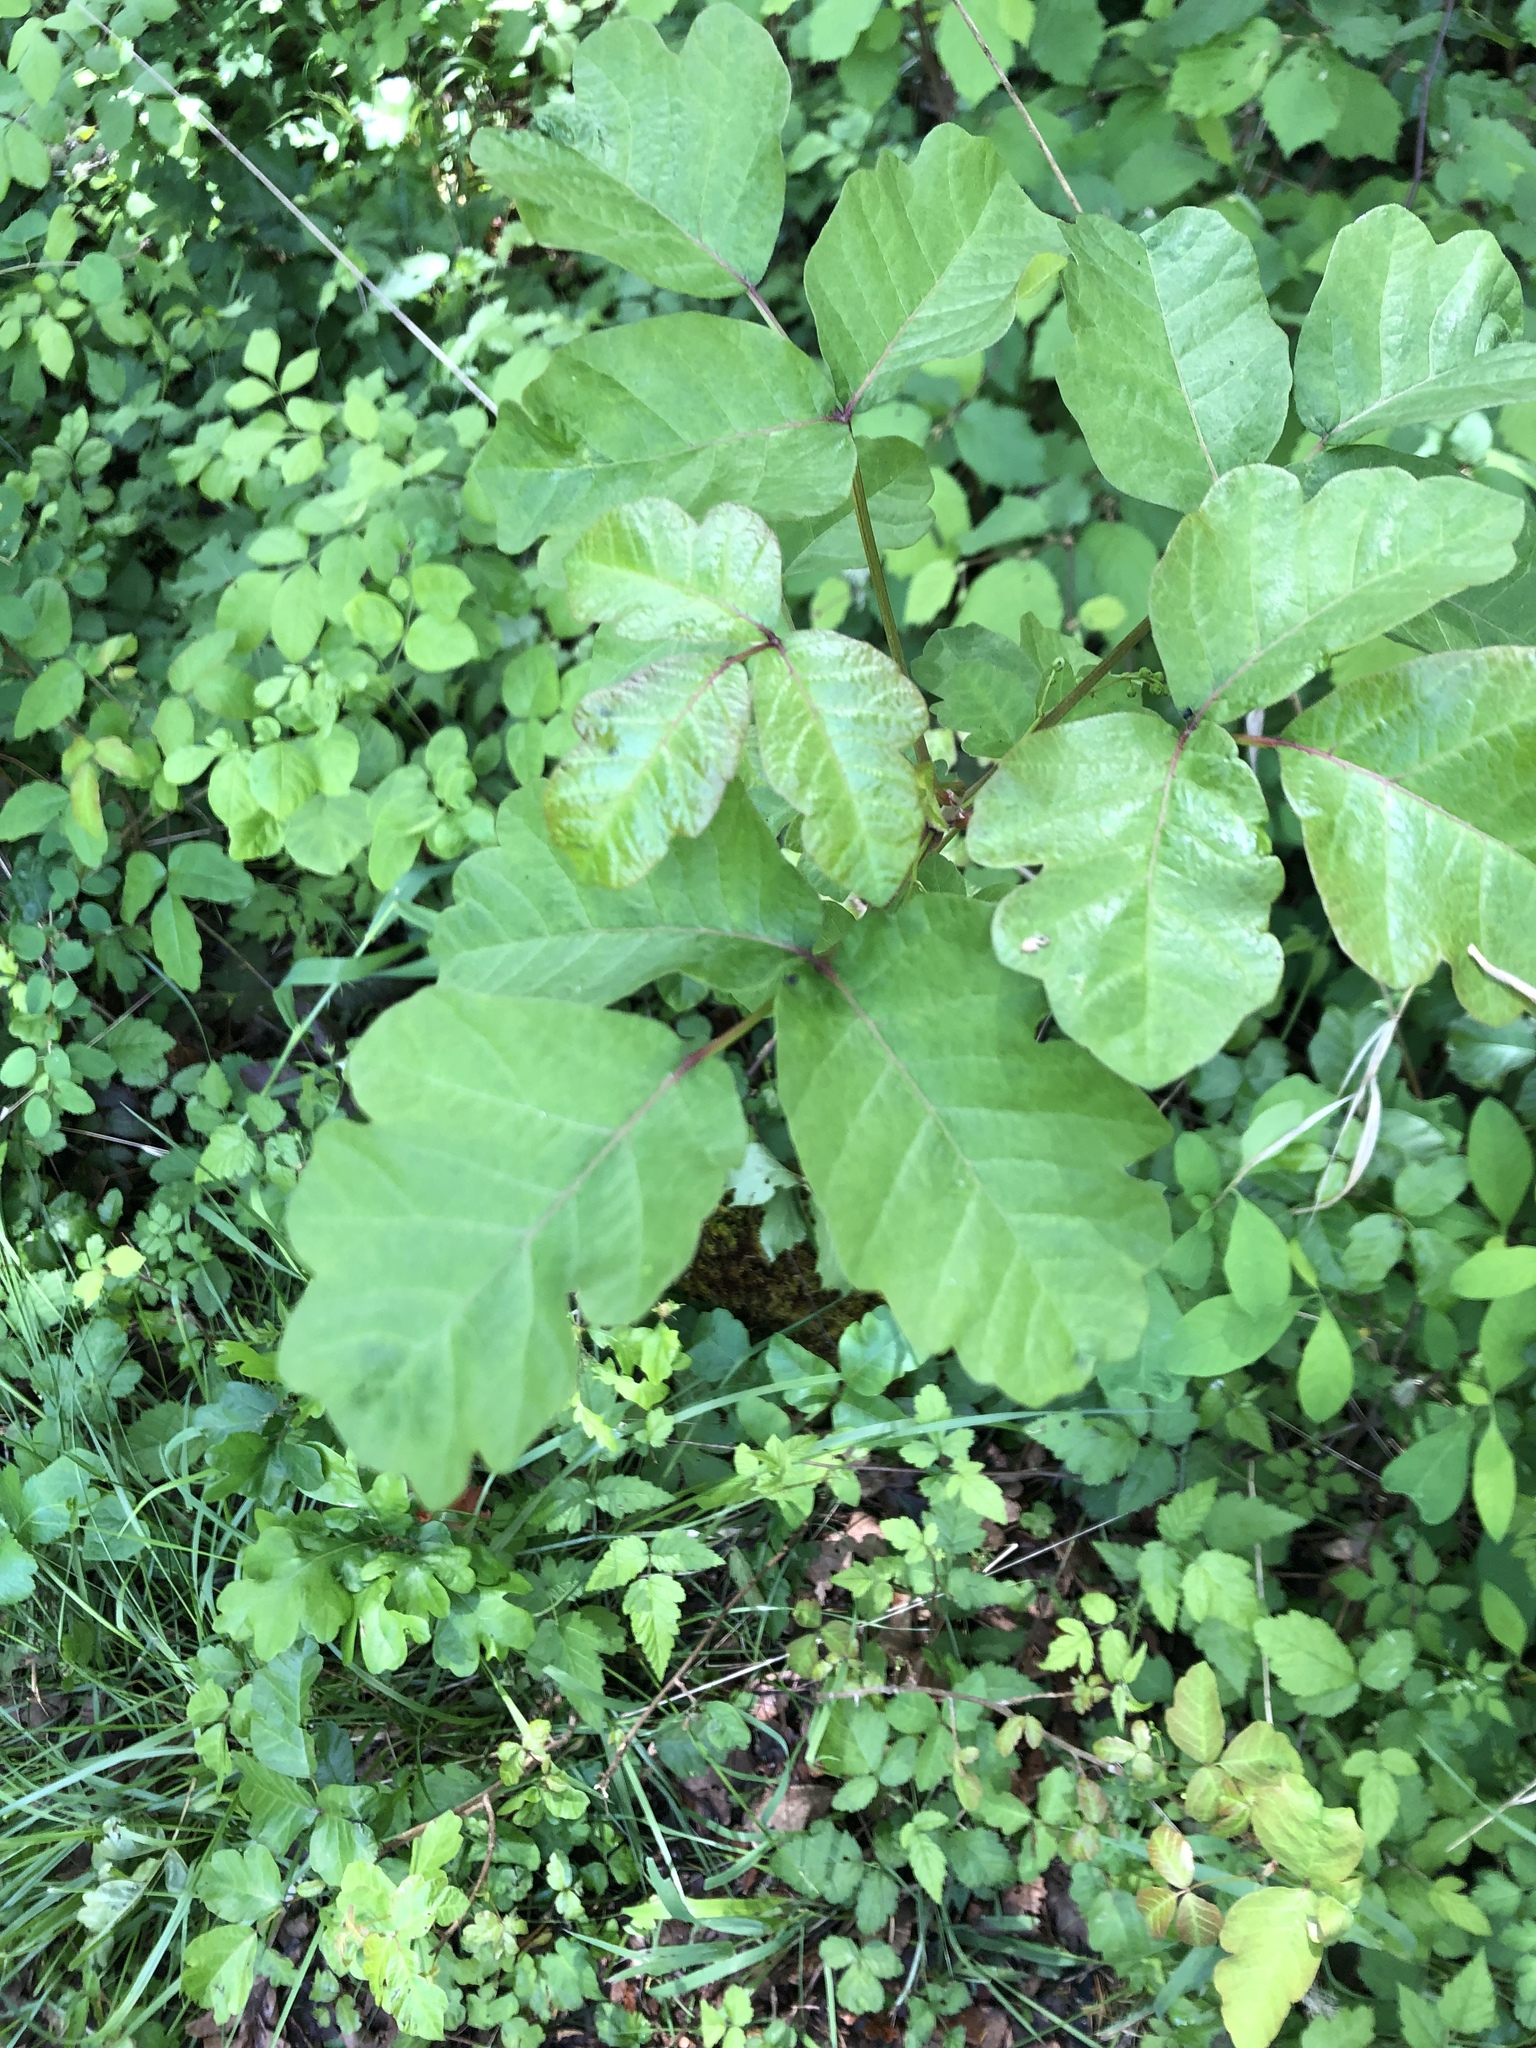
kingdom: Plantae
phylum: Tracheophyta
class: Magnoliopsida
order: Sapindales
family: Anacardiaceae
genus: Toxicodendron
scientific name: Toxicodendron diversilobum
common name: Pacific poison-oak
